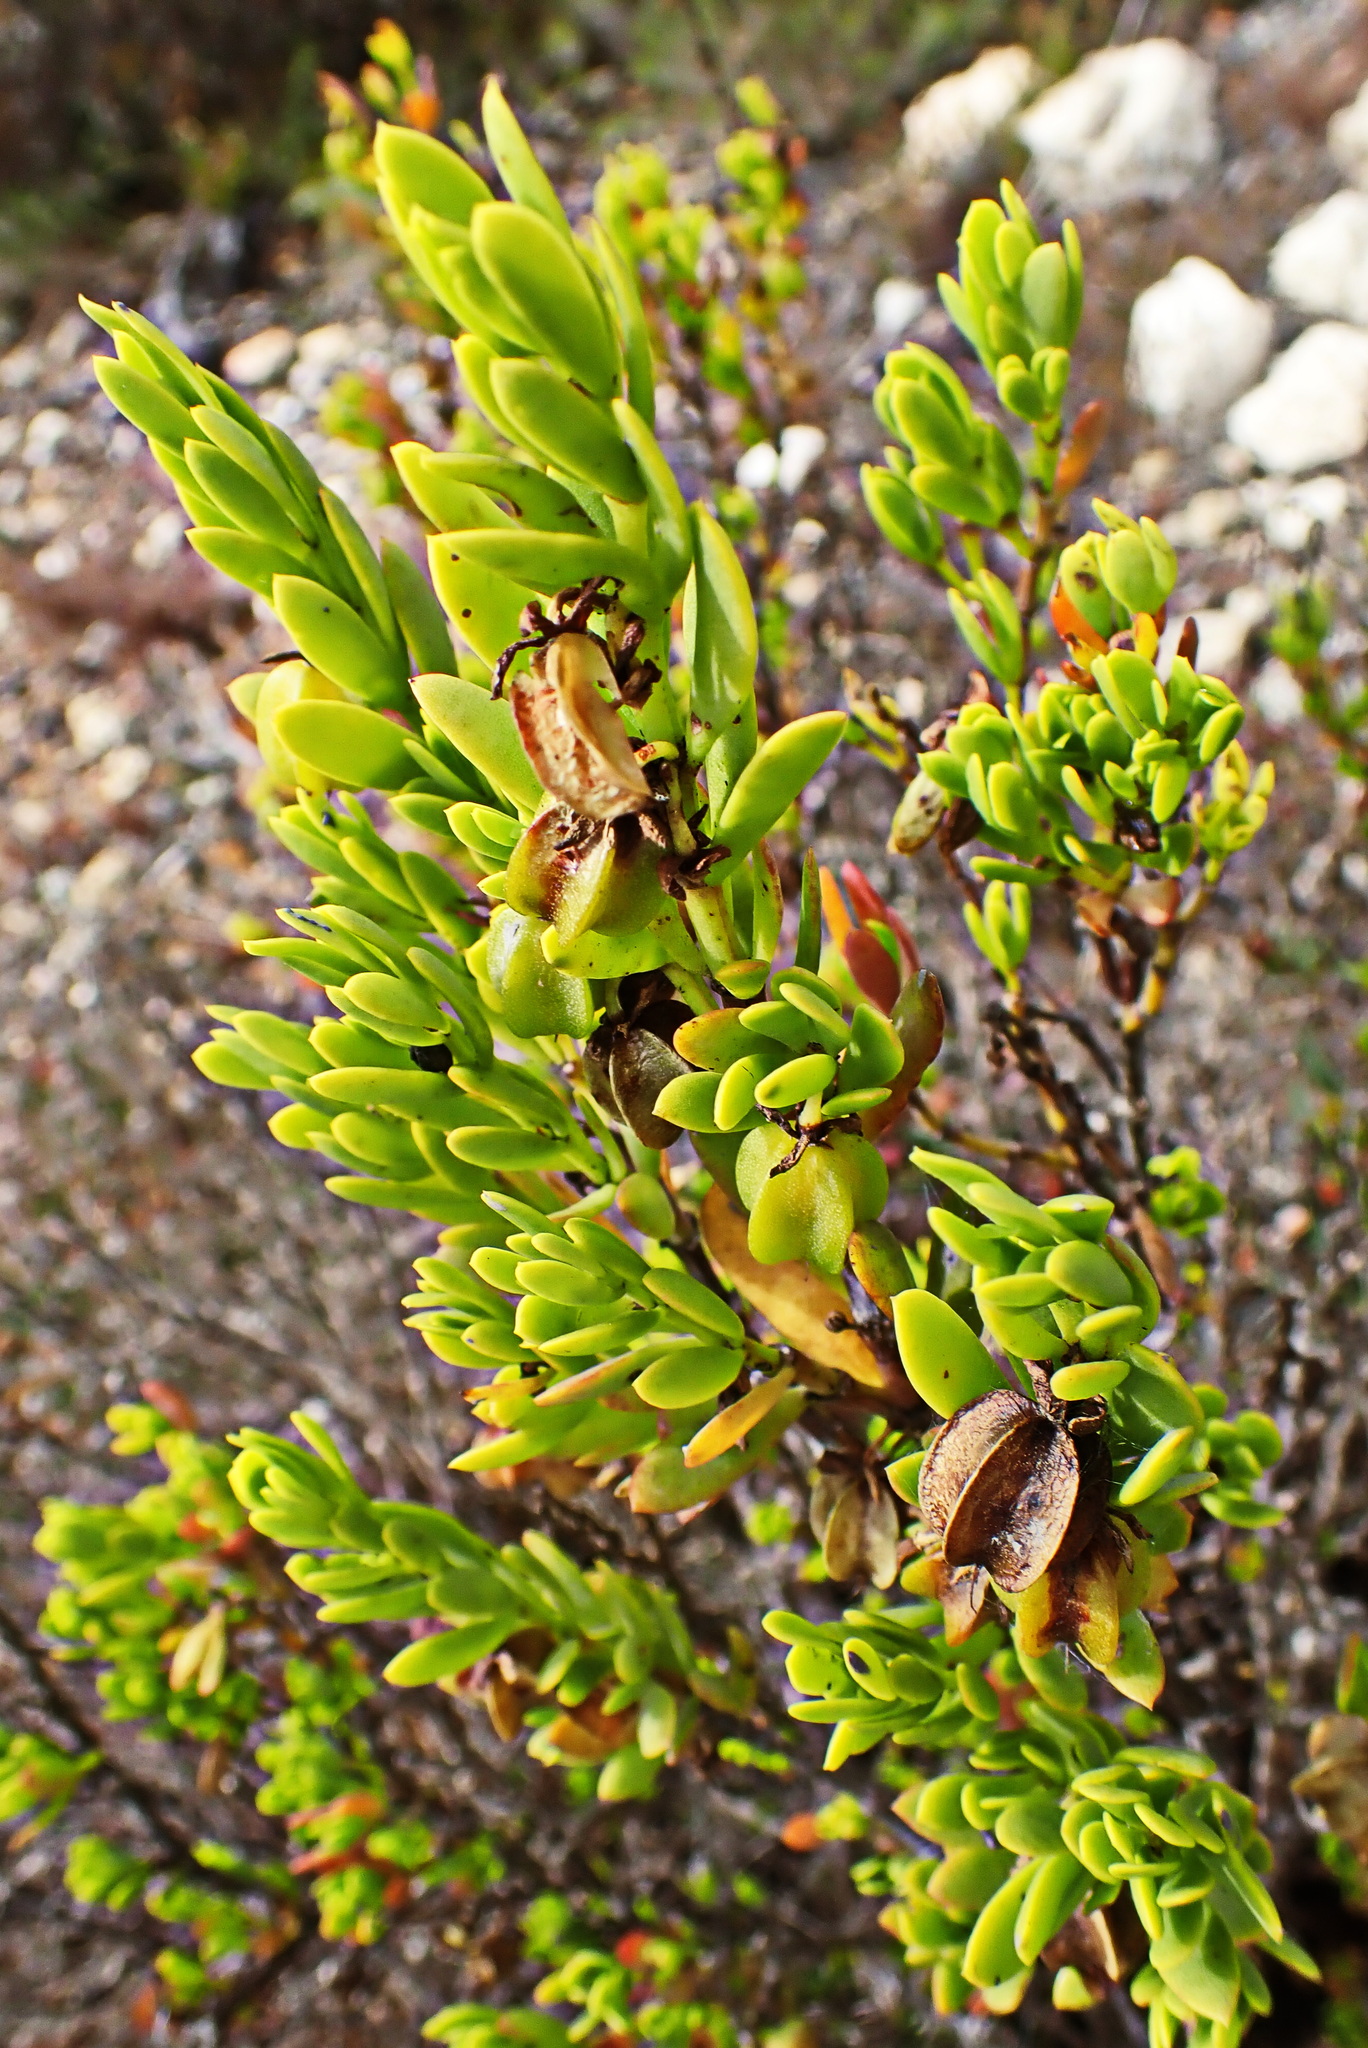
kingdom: Plantae
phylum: Tracheophyta
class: Magnoliopsida
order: Zygophyllales
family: Zygophyllaceae
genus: Roepera
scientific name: Roepera fulva
